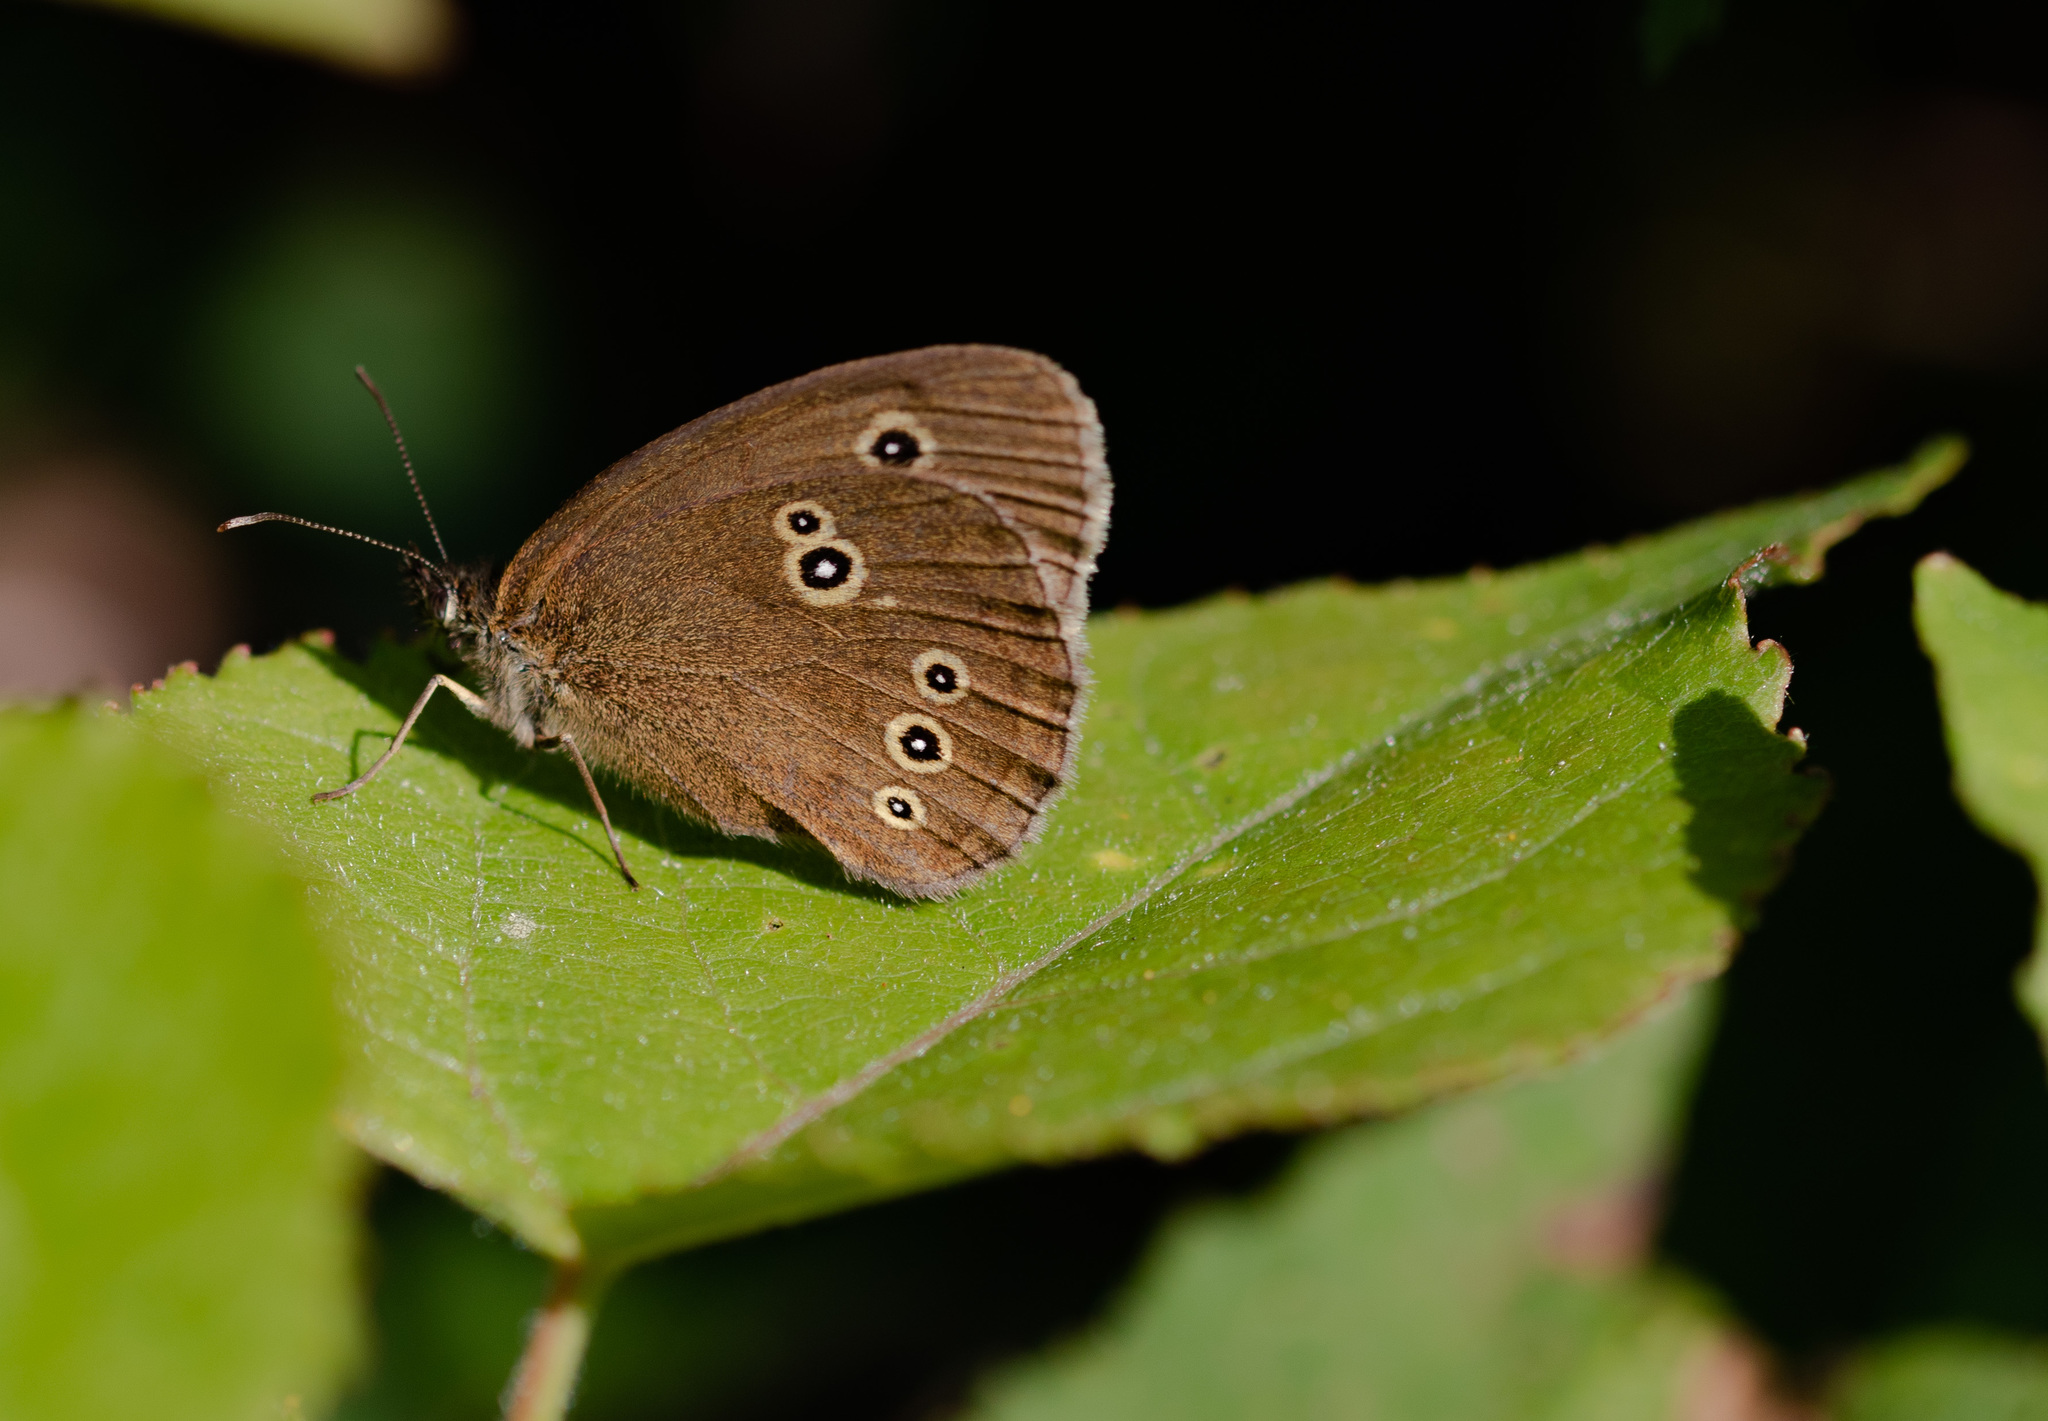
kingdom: Animalia
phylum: Arthropoda
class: Insecta
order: Lepidoptera
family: Nymphalidae
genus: Aphantopus
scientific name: Aphantopus hyperantus
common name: Ringlet
